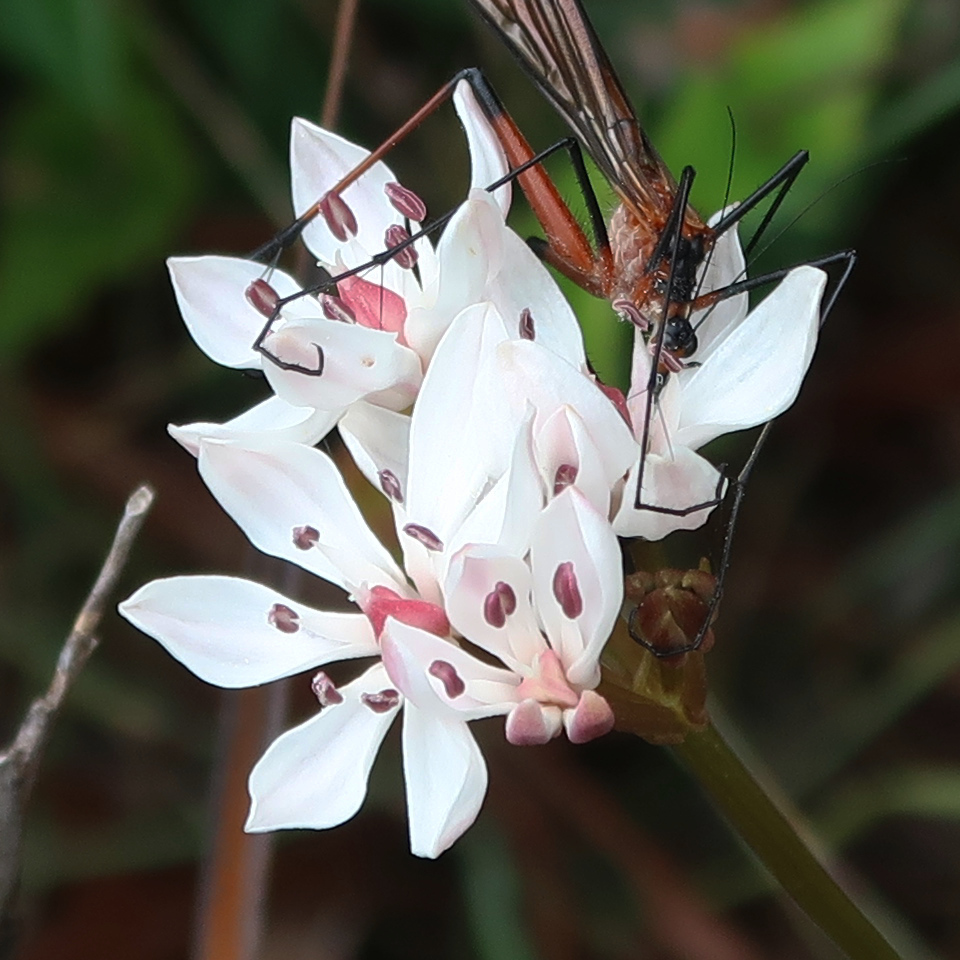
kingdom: Plantae
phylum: Tracheophyta
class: Liliopsida
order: Liliales
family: Colchicaceae
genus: Burchardia
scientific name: Burchardia umbellata
